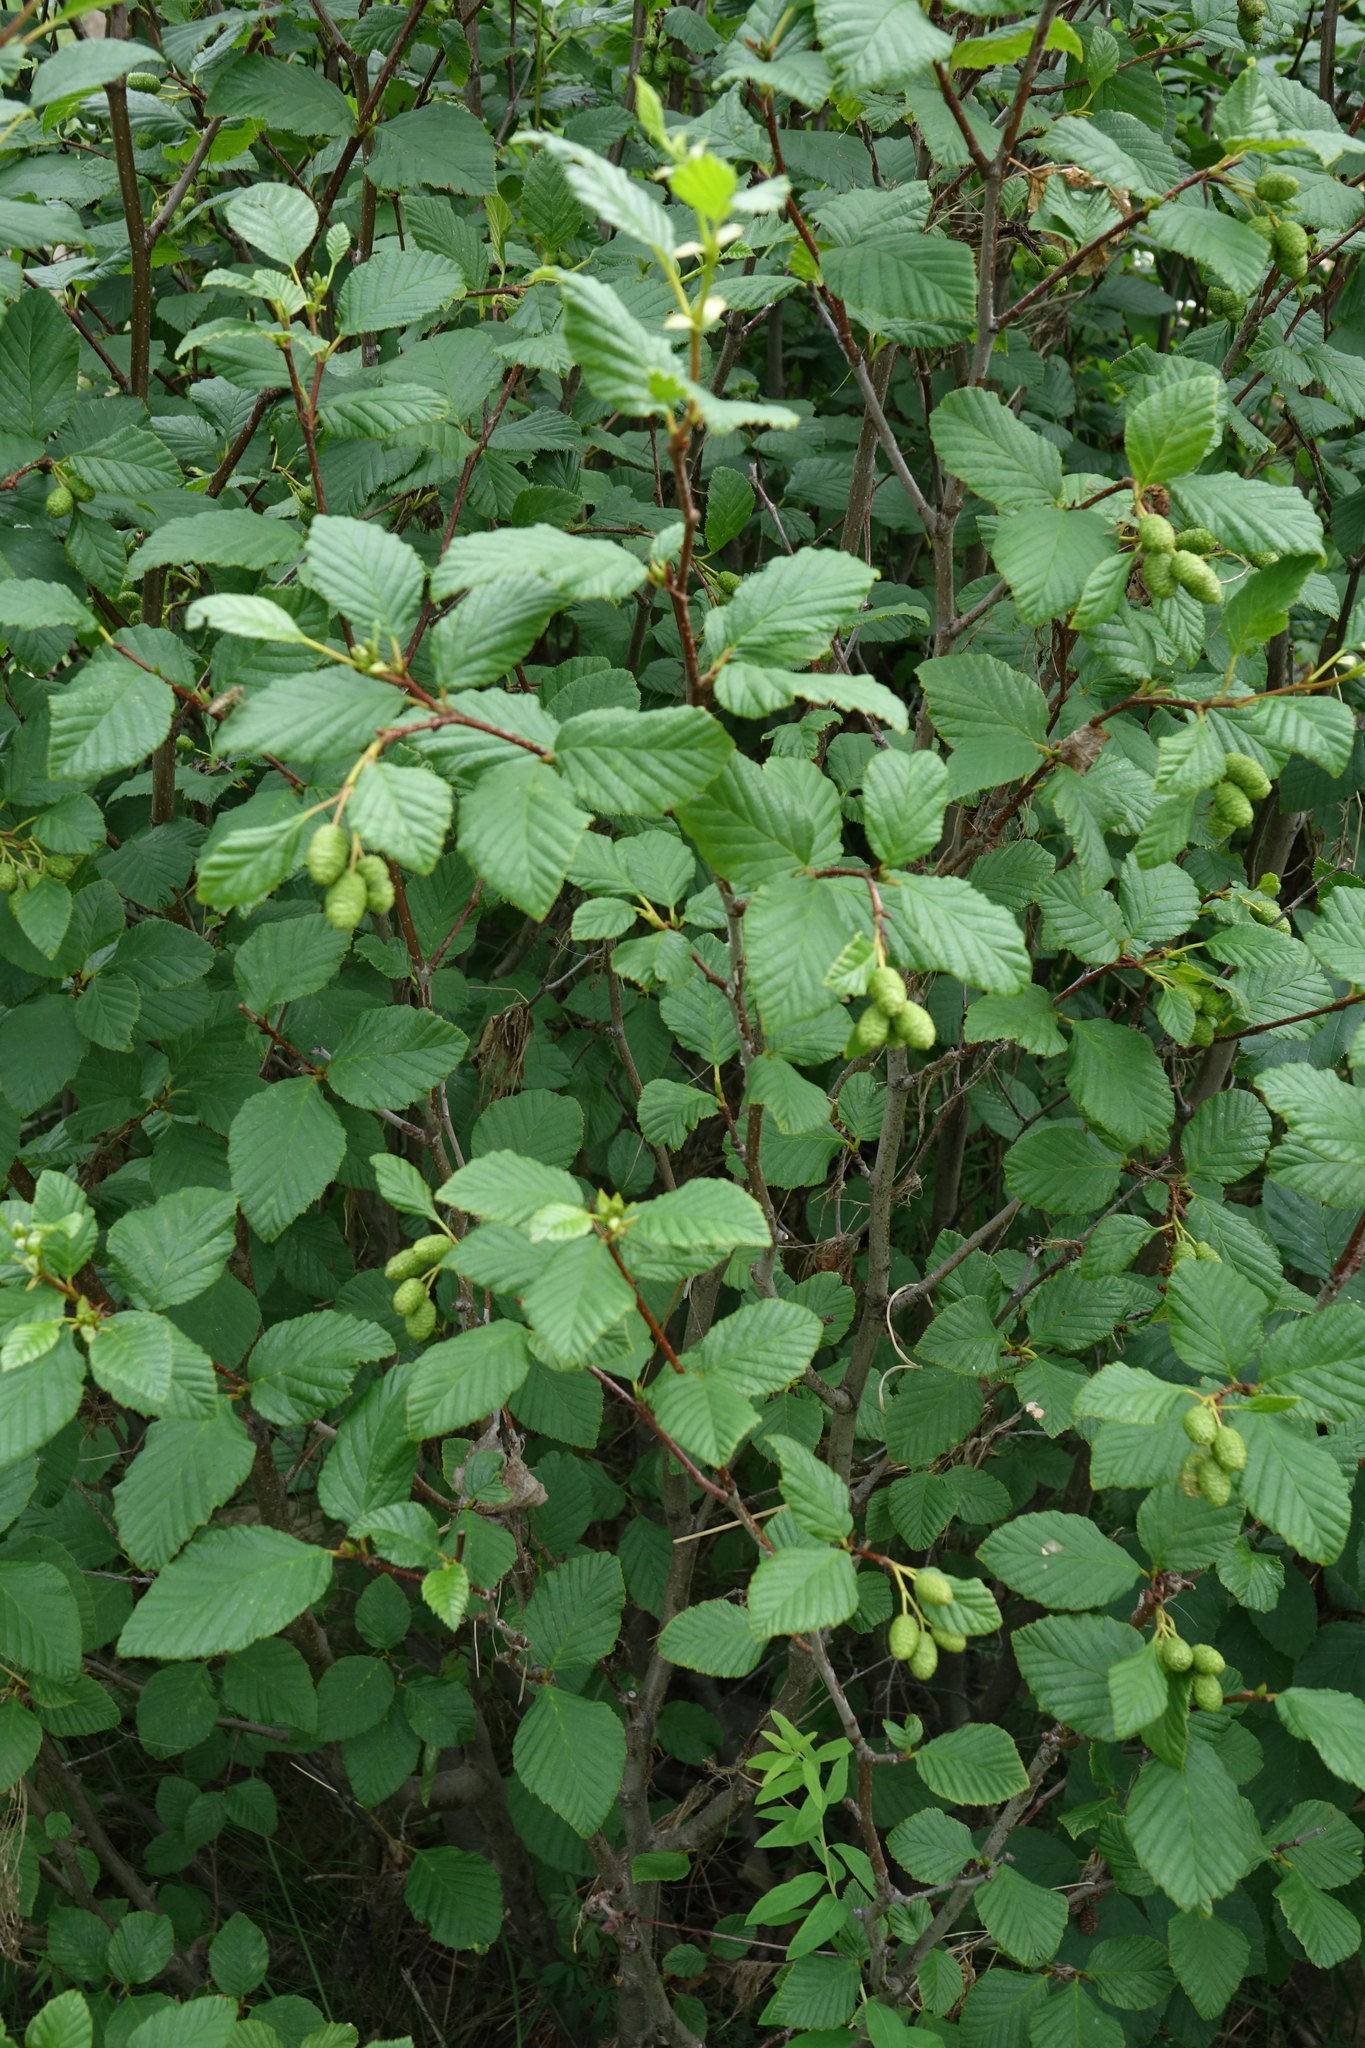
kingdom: Plantae
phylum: Tracheophyta
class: Magnoliopsida
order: Fagales
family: Betulaceae
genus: Alnus
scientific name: Alnus alnobetula
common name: Green alder
